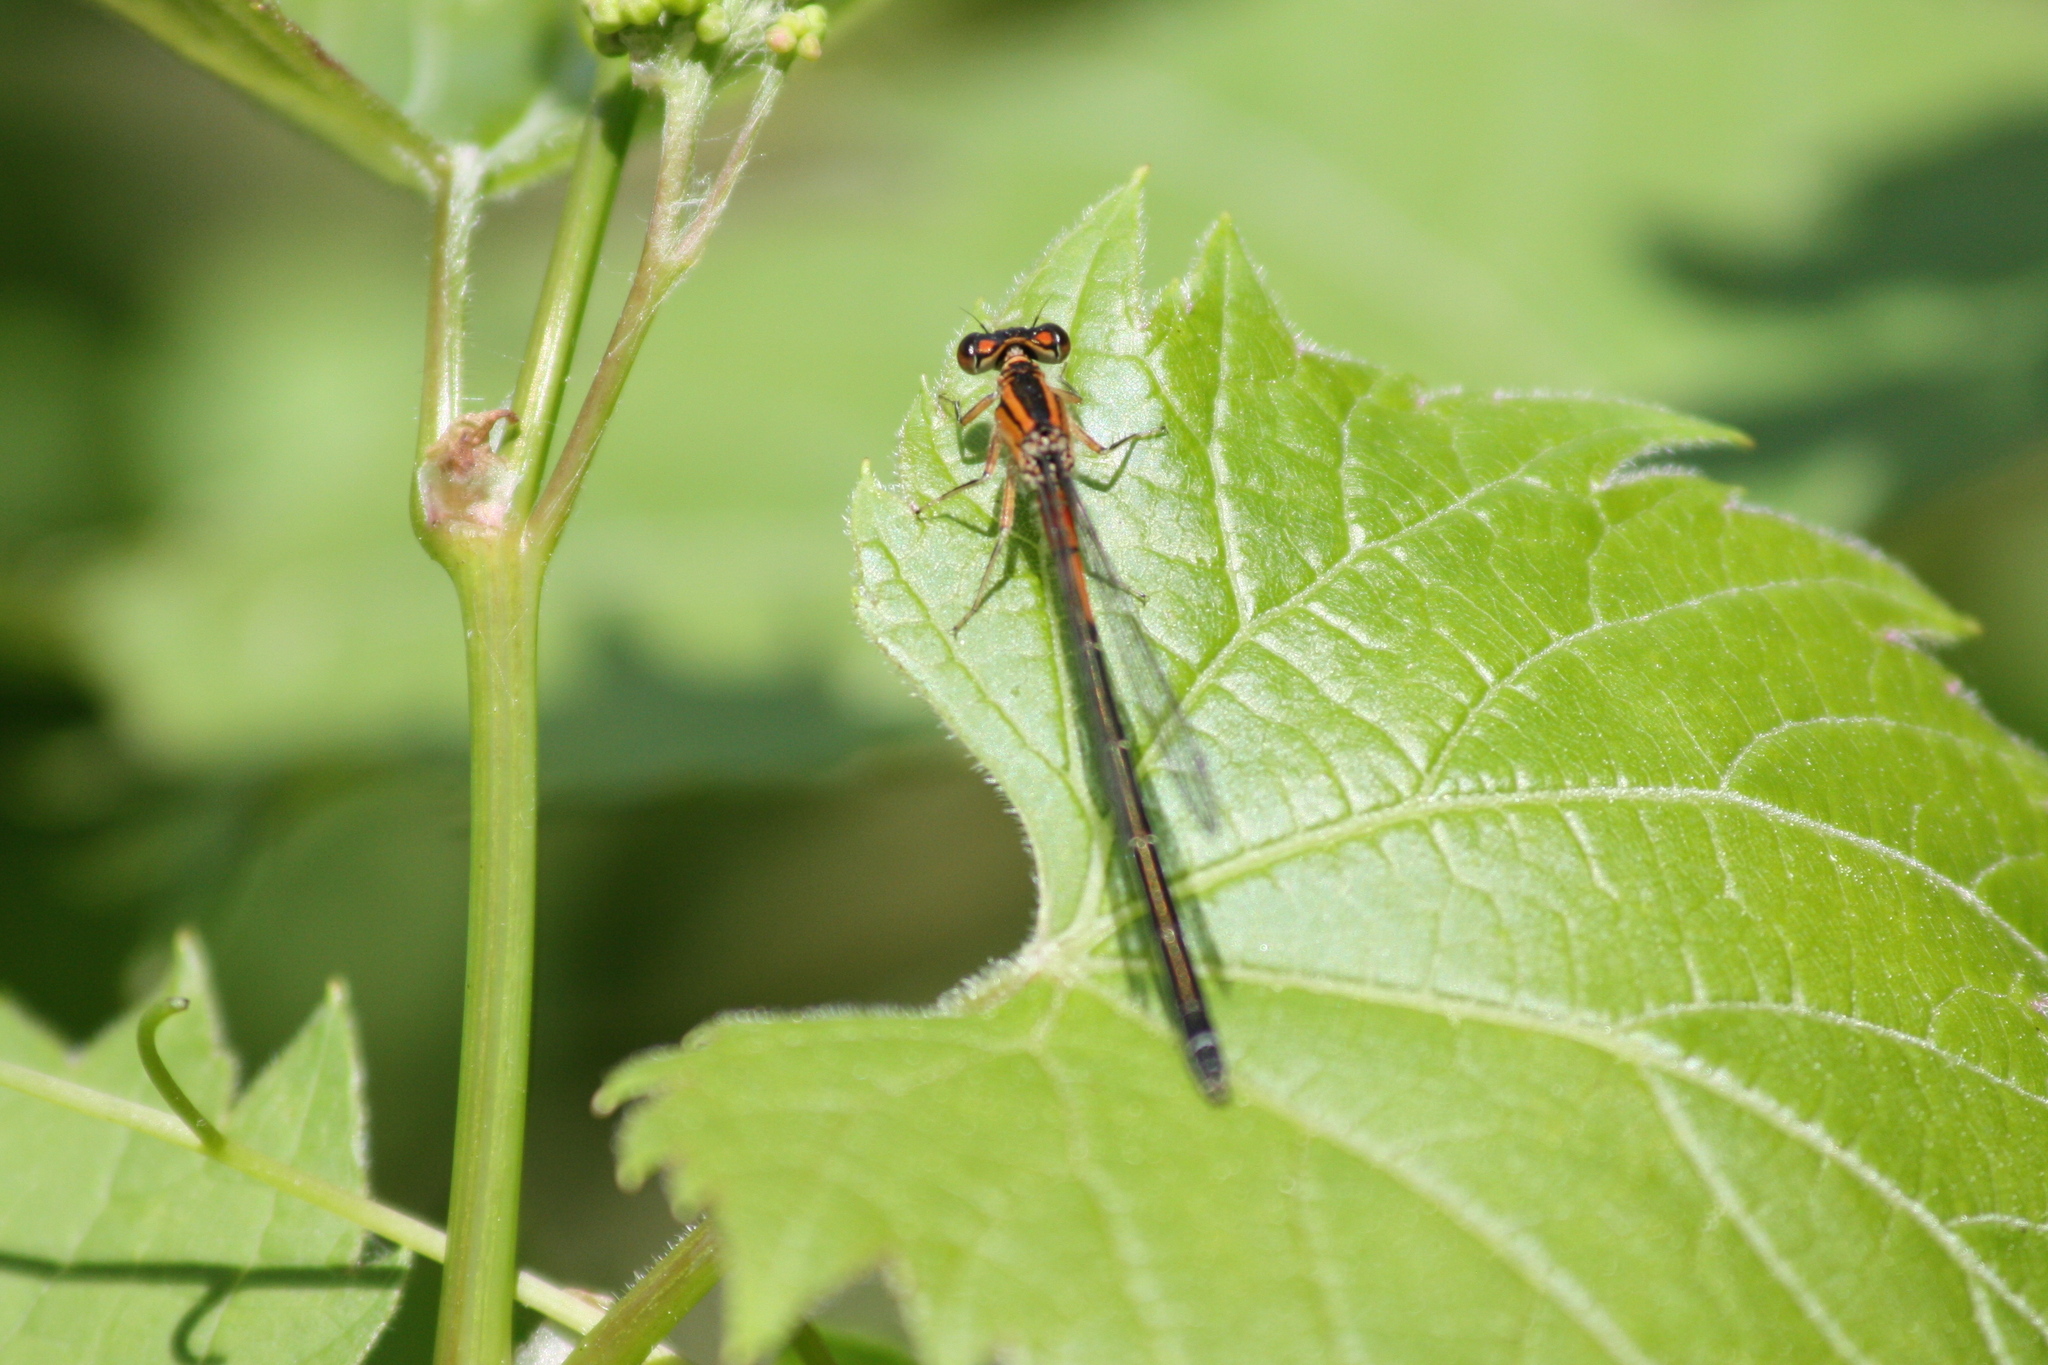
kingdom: Animalia
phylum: Arthropoda
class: Insecta
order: Odonata
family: Coenagrionidae
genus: Ischnura
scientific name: Ischnura verticalis
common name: Eastern forktail
